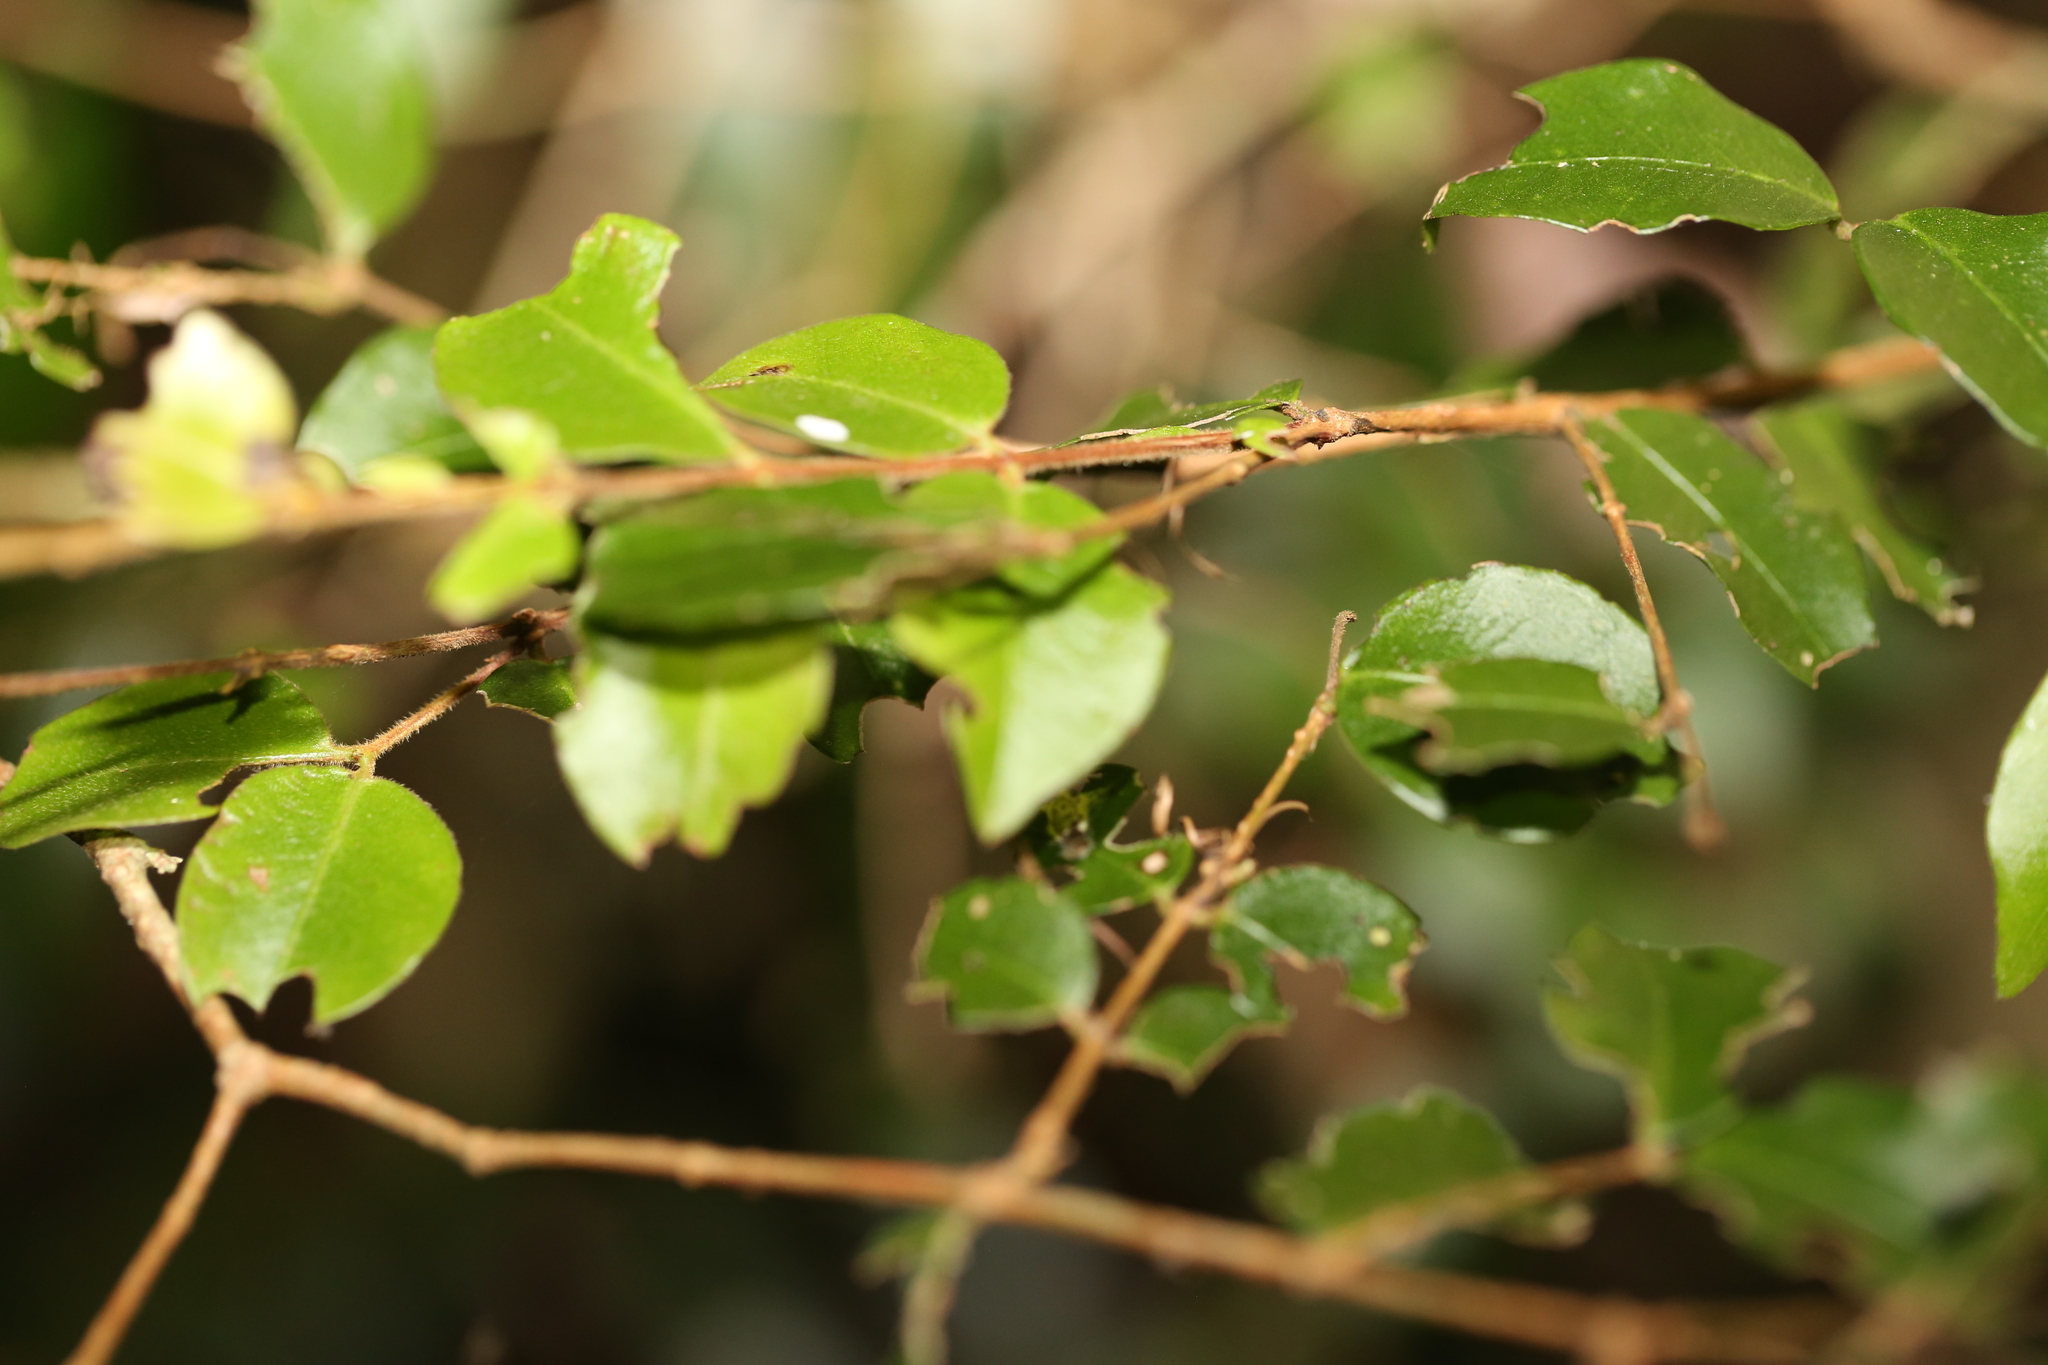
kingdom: Plantae
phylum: Tracheophyta
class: Magnoliopsida
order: Myrtales
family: Myrtaceae
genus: Gossia
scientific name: Gossia inophloia
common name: Threadbark myrtle
